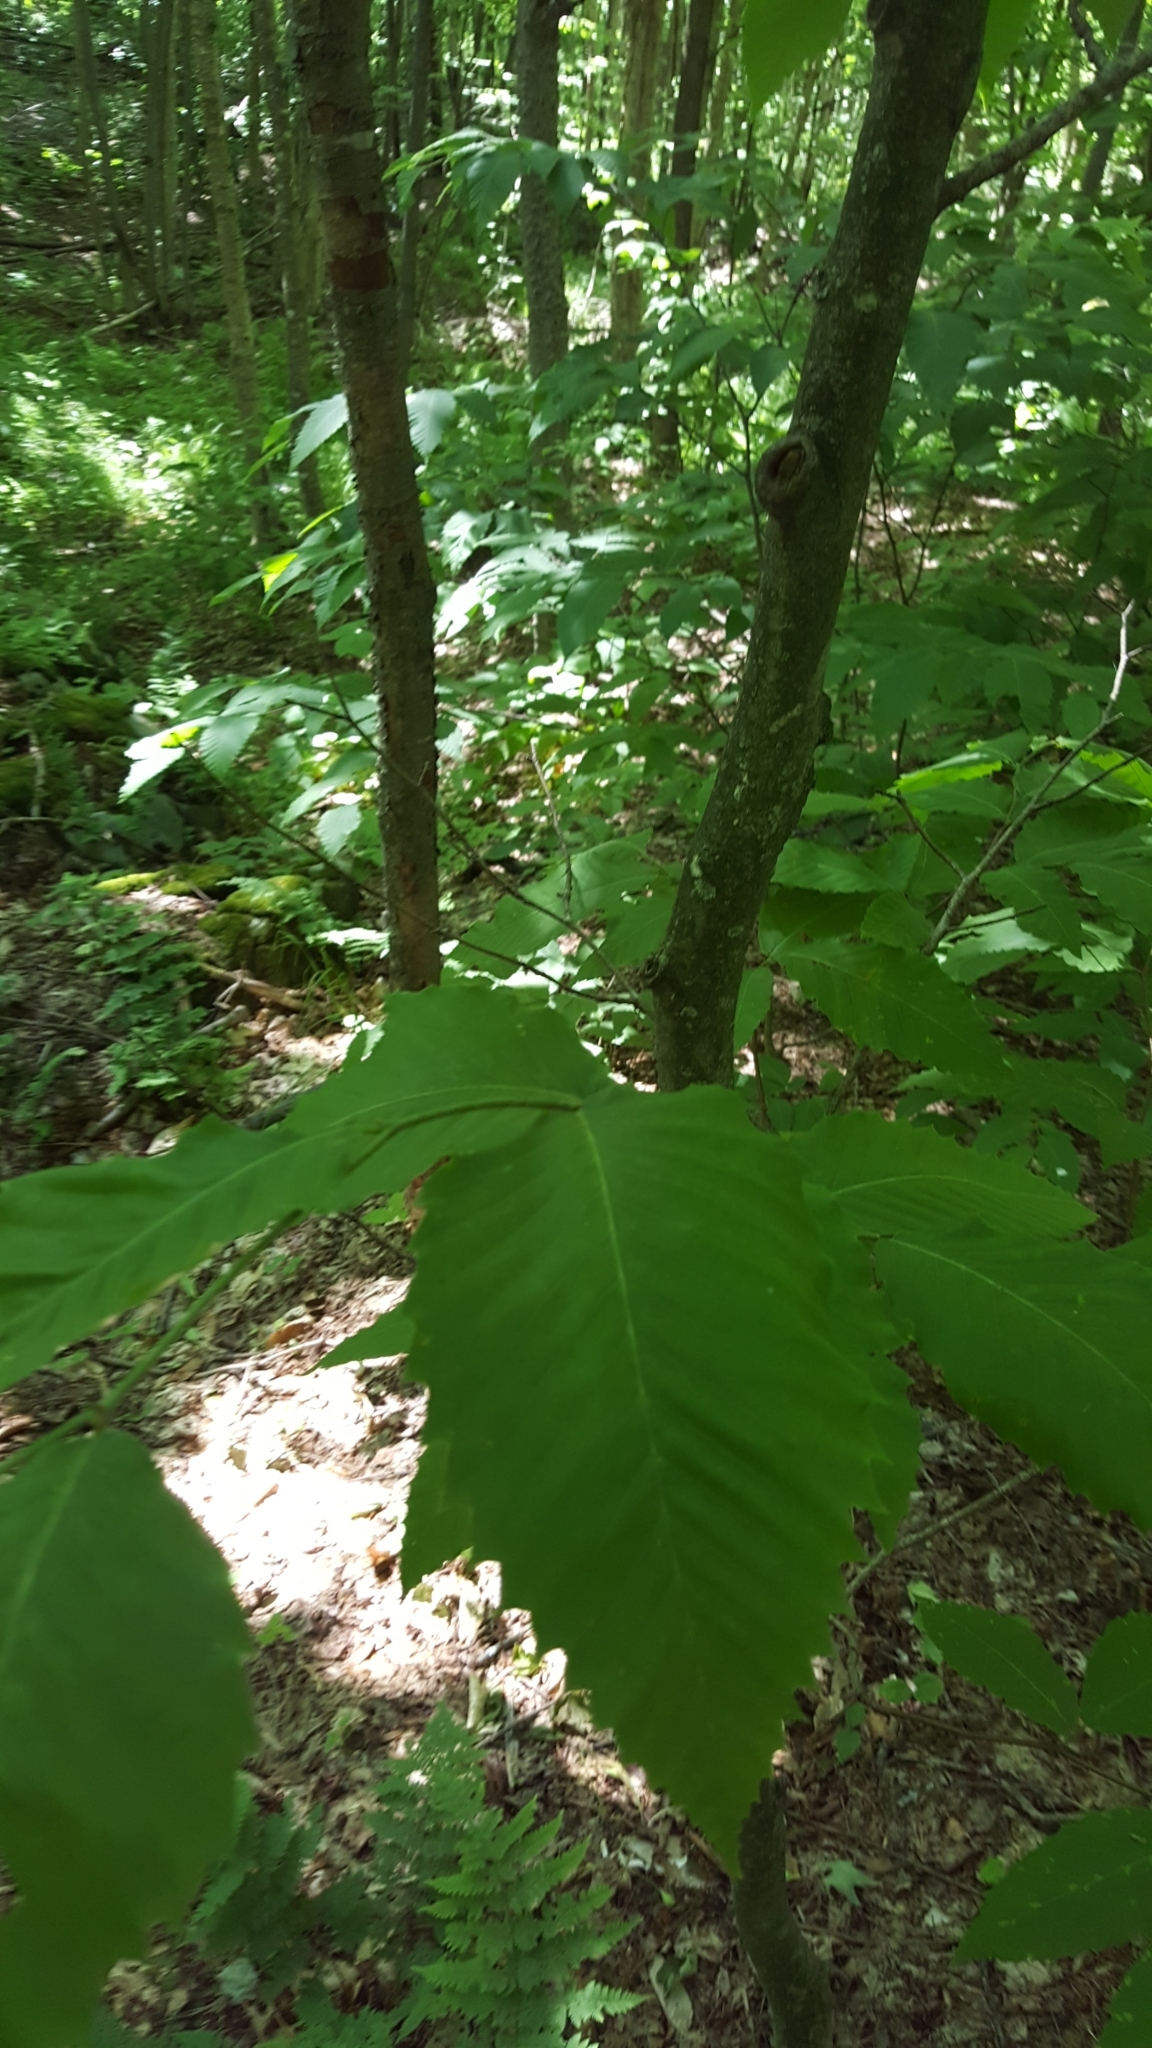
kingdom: Plantae
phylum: Tracheophyta
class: Magnoliopsida
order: Fagales
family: Fagaceae
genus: Fagus
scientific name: Fagus grandifolia
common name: American beech
